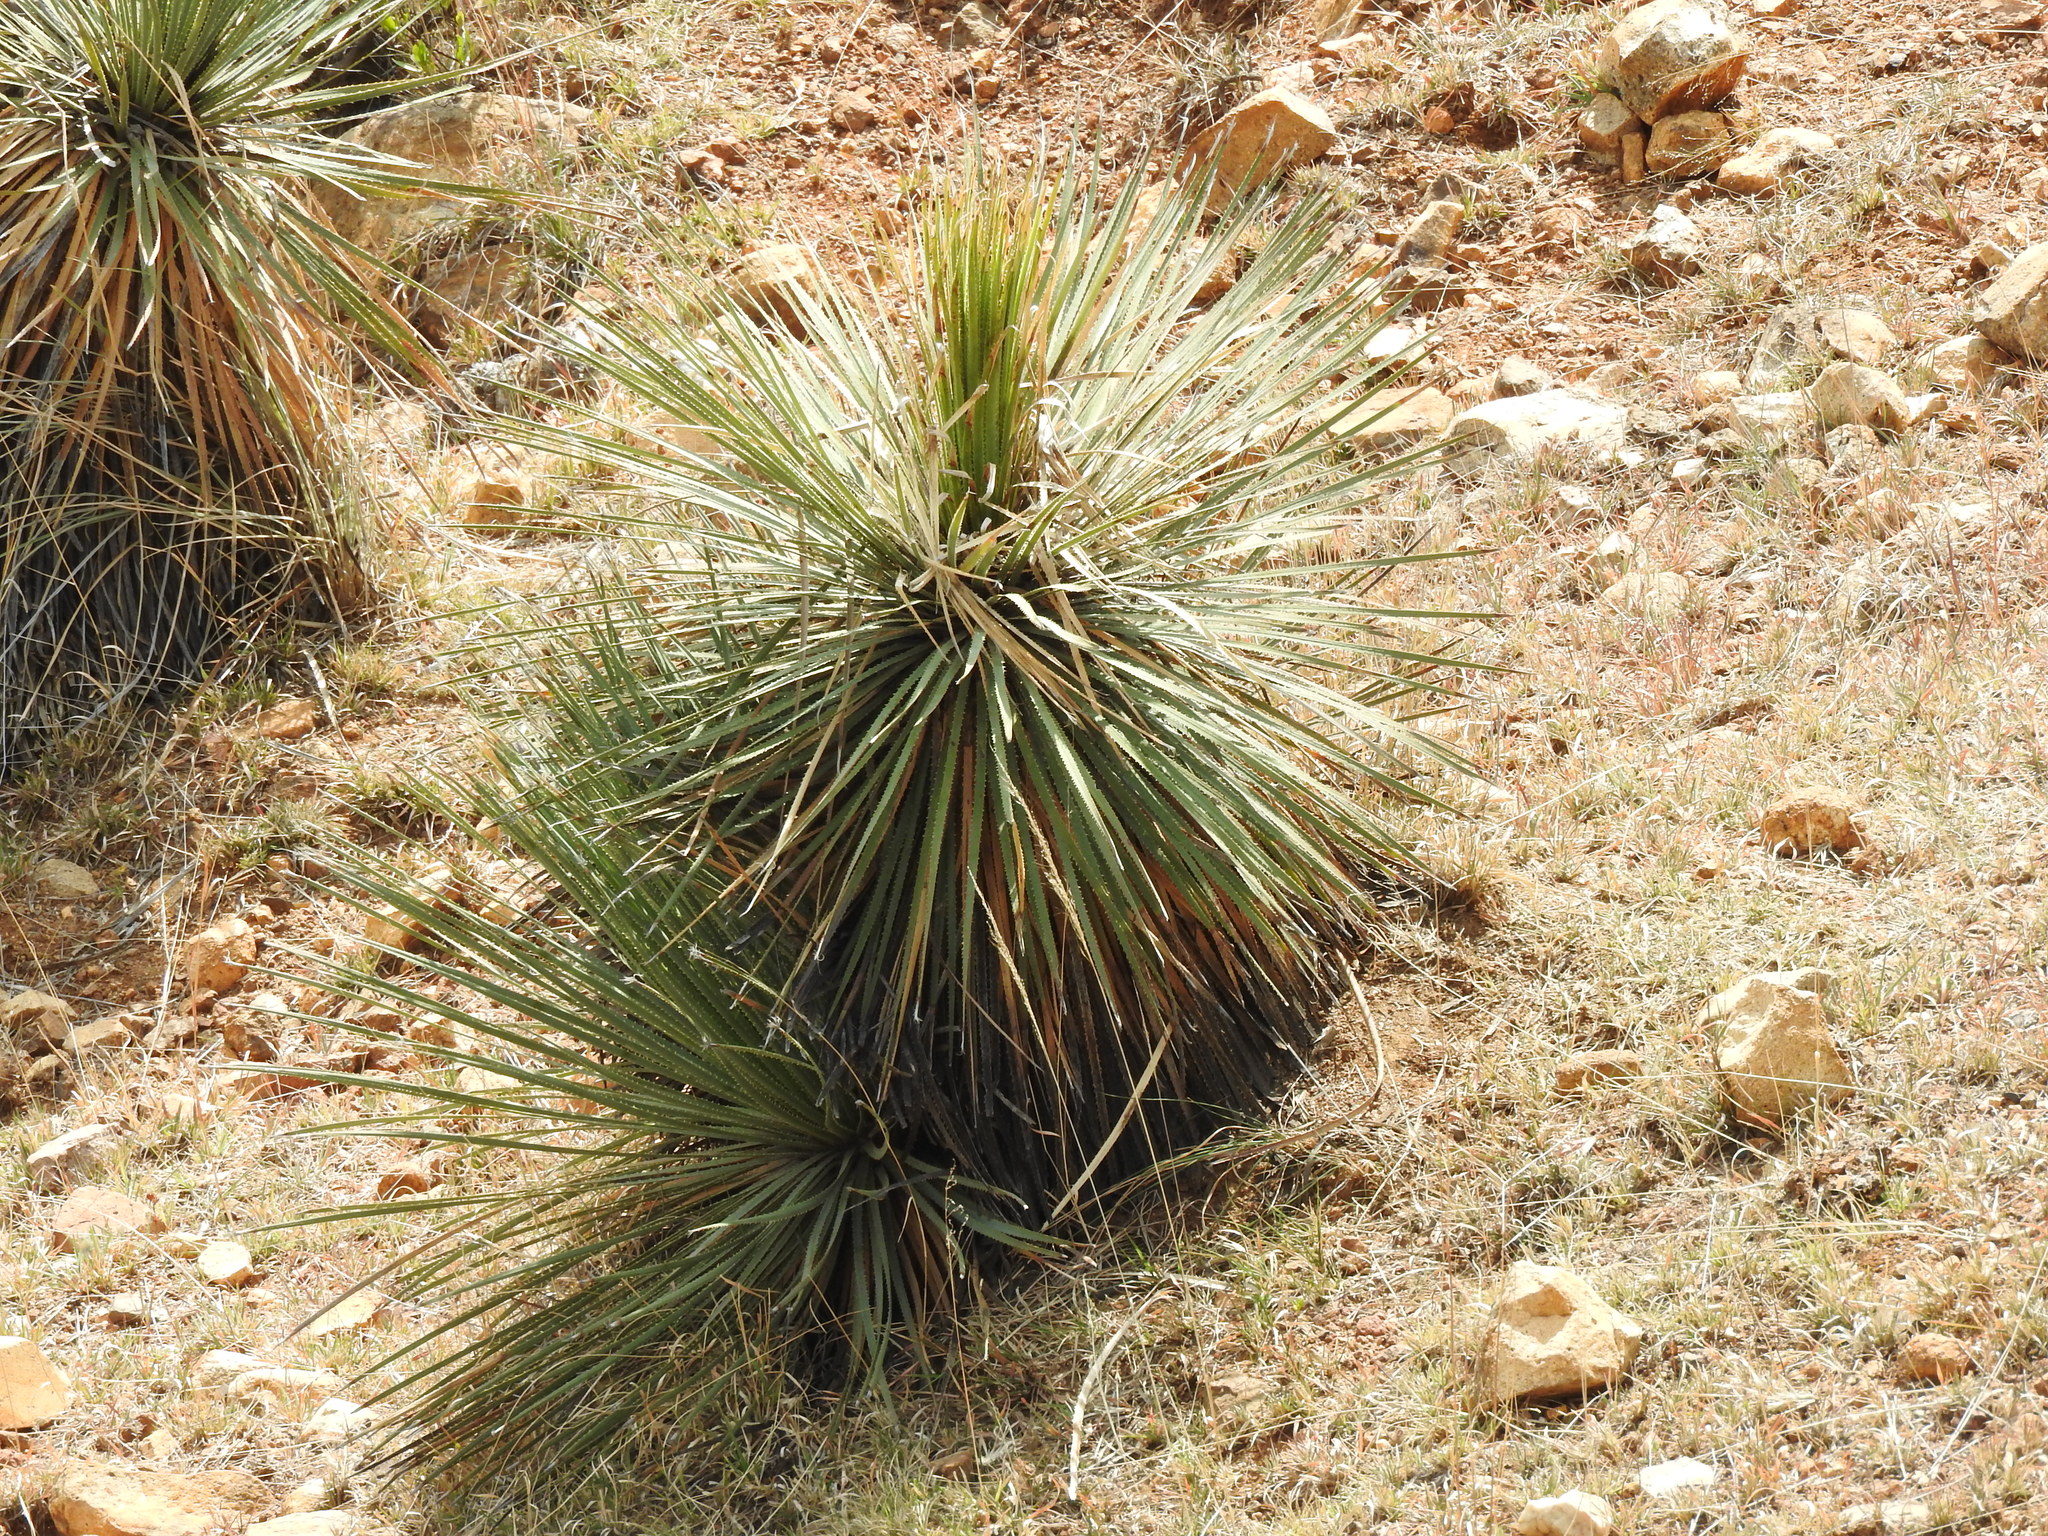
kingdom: Plantae
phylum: Tracheophyta
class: Liliopsida
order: Asparagales
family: Asparagaceae
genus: Dasylirion
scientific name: Dasylirion acrotrichum
